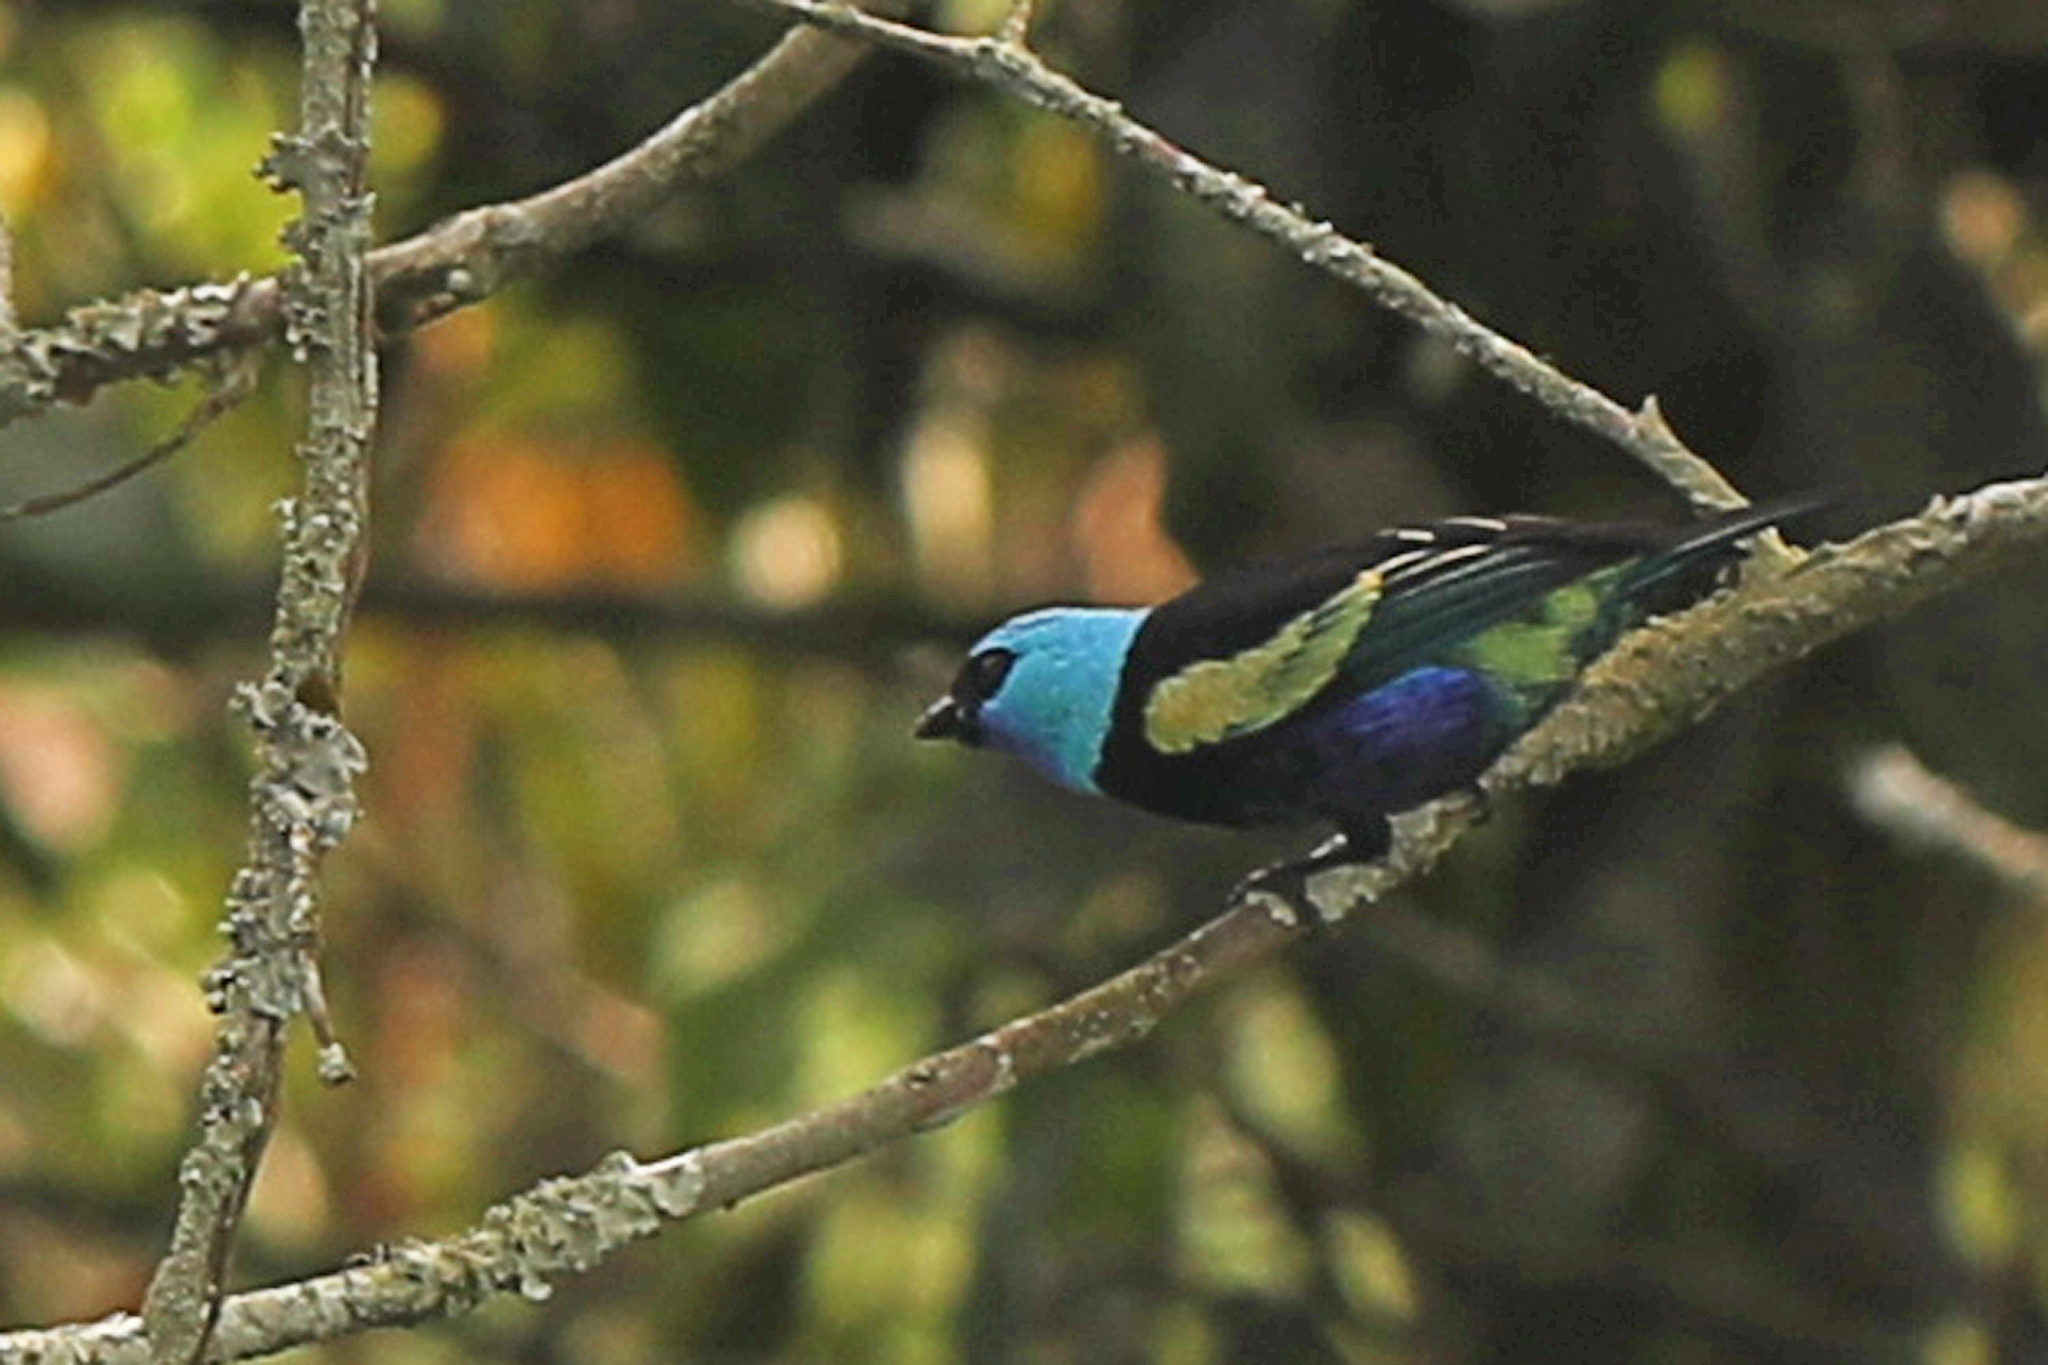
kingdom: Animalia
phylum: Chordata
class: Aves
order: Passeriformes
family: Thraupidae
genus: Stilpnia
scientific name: Stilpnia cyanicollis
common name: Blue-necked tanager
